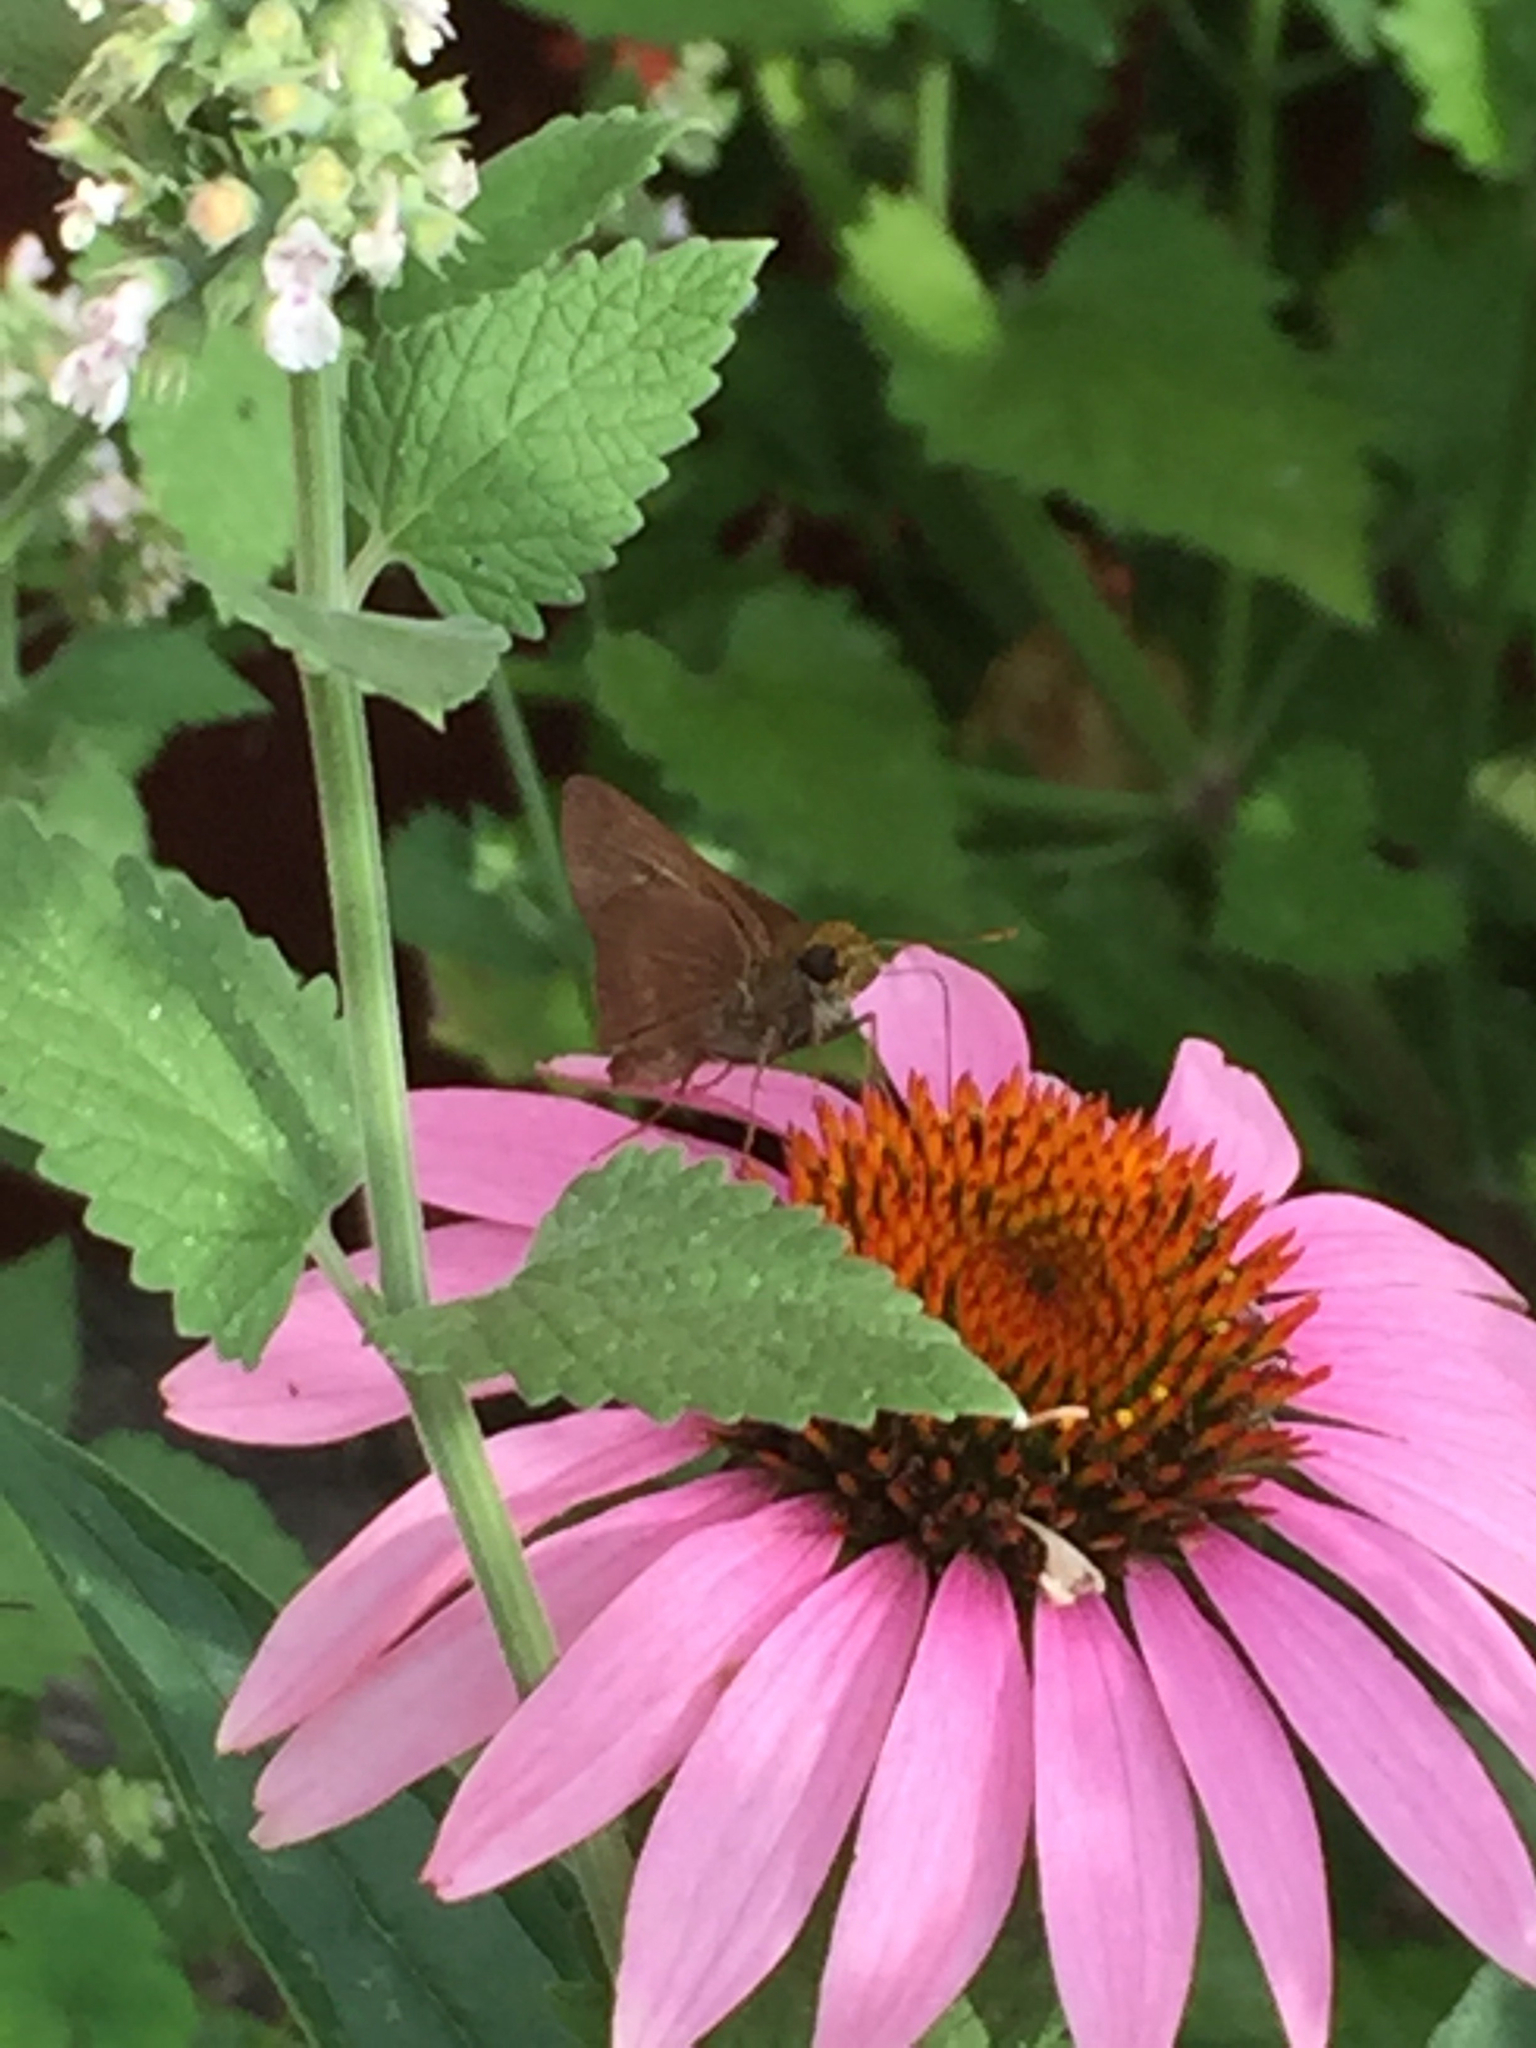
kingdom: Animalia
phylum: Arthropoda
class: Insecta
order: Lepidoptera
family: Hesperiidae
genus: Euphyes
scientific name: Euphyes vestris
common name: Dun skipper
